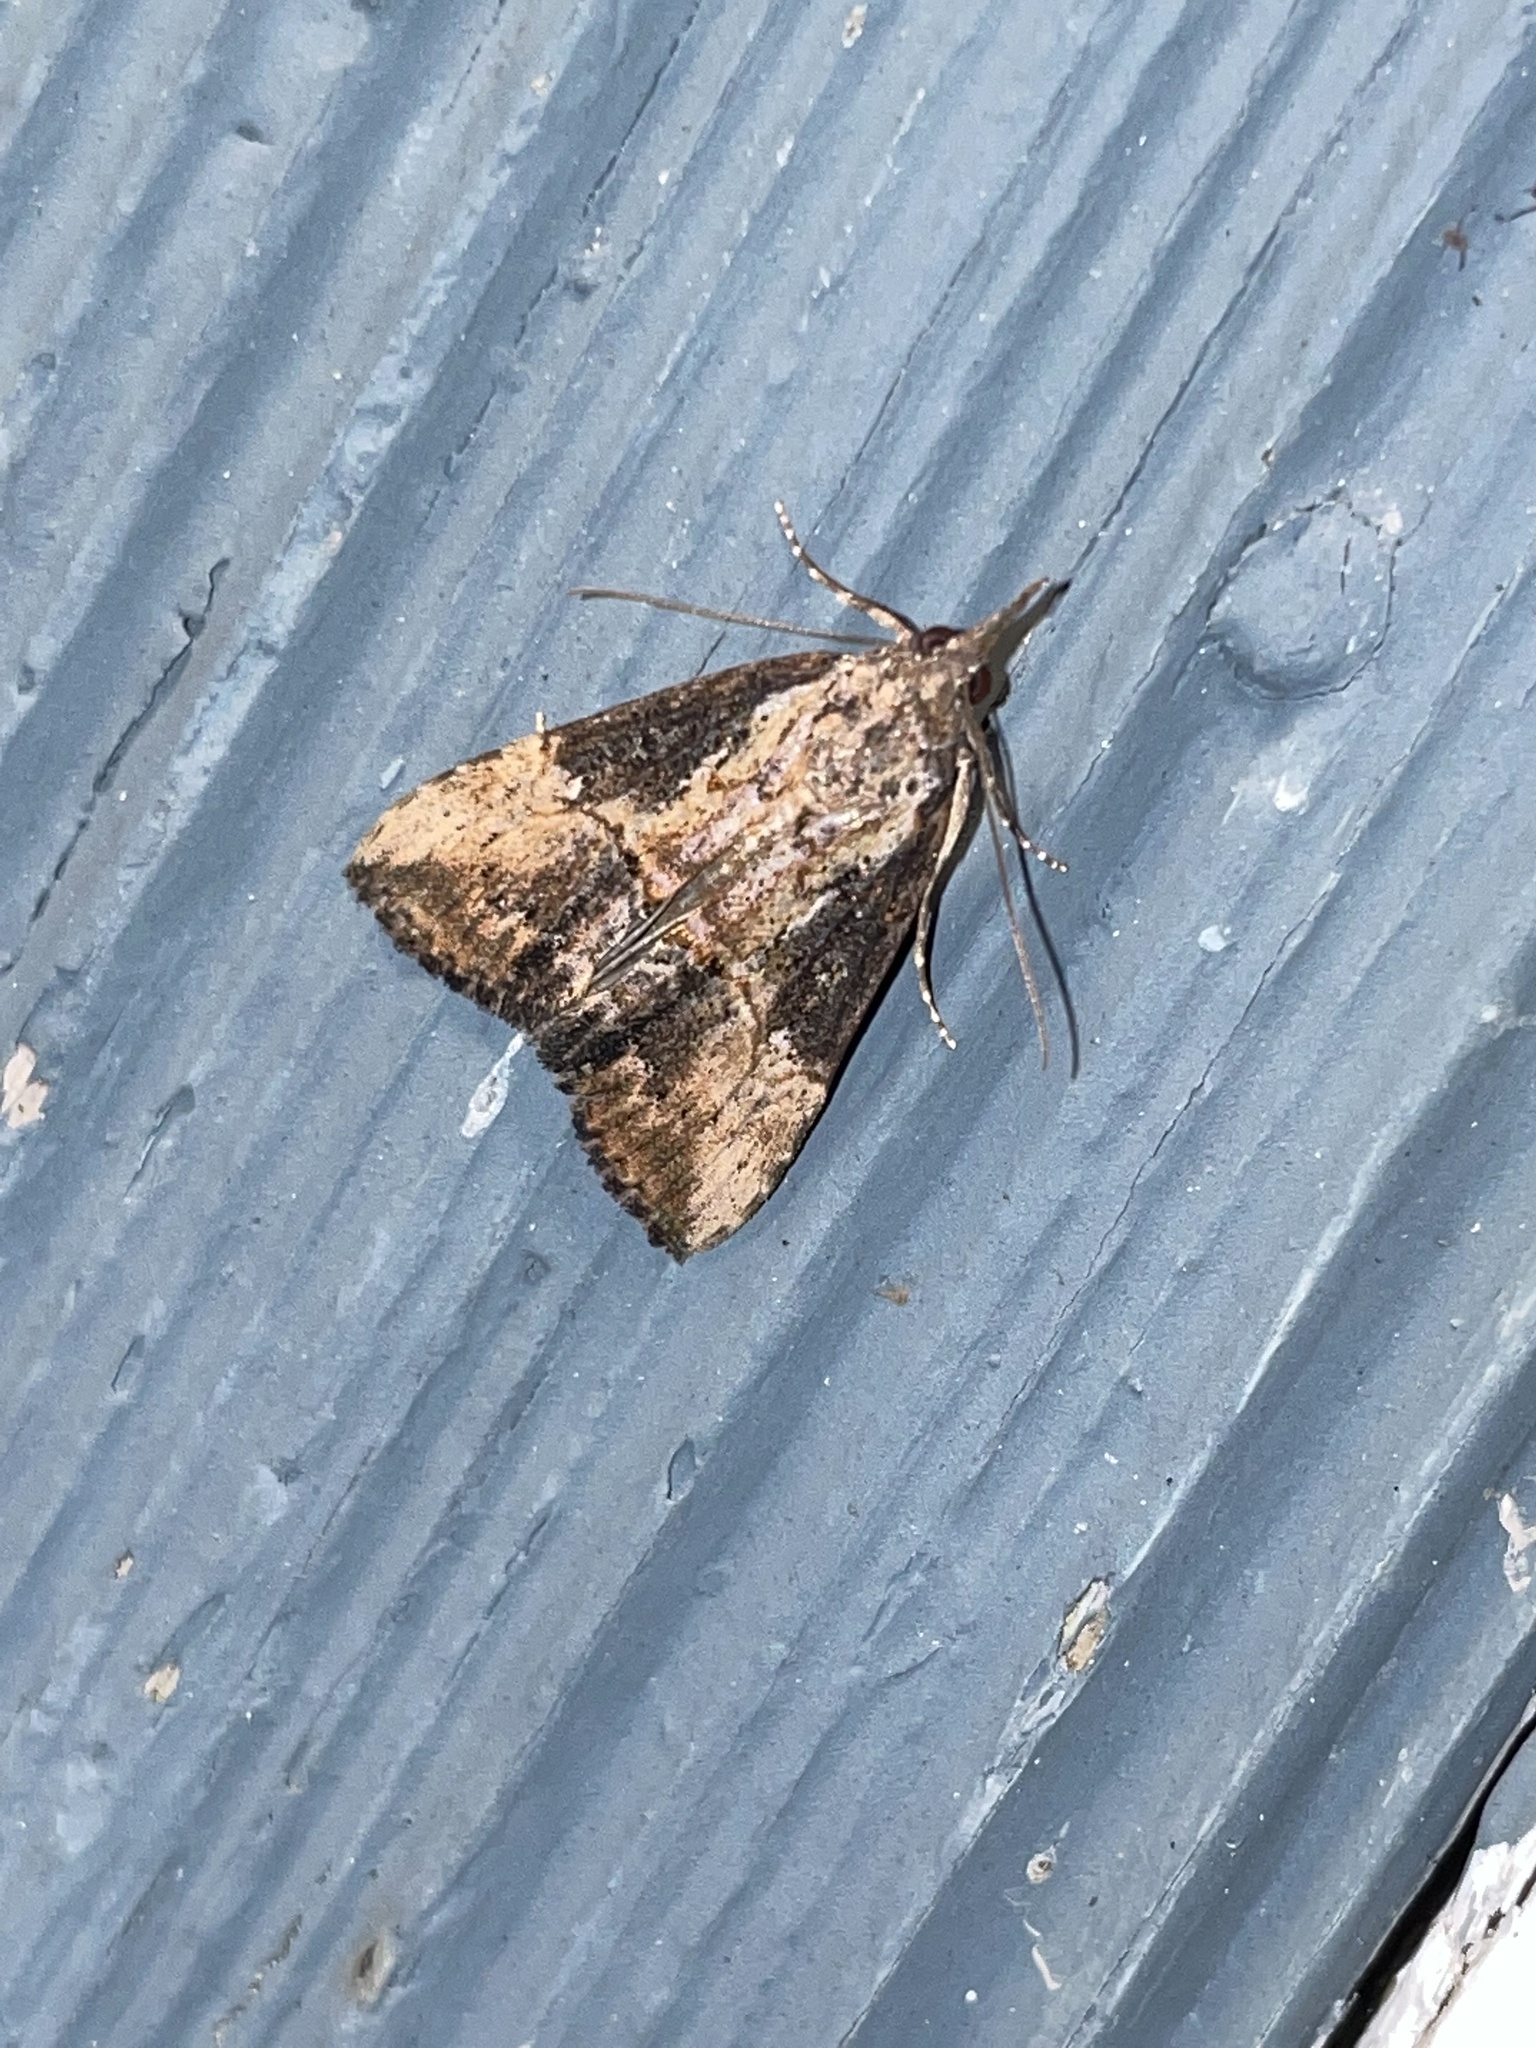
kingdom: Animalia
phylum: Arthropoda
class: Insecta
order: Lepidoptera
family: Erebidae
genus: Hypena
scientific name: Hypena scabra
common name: Green cloverworm
